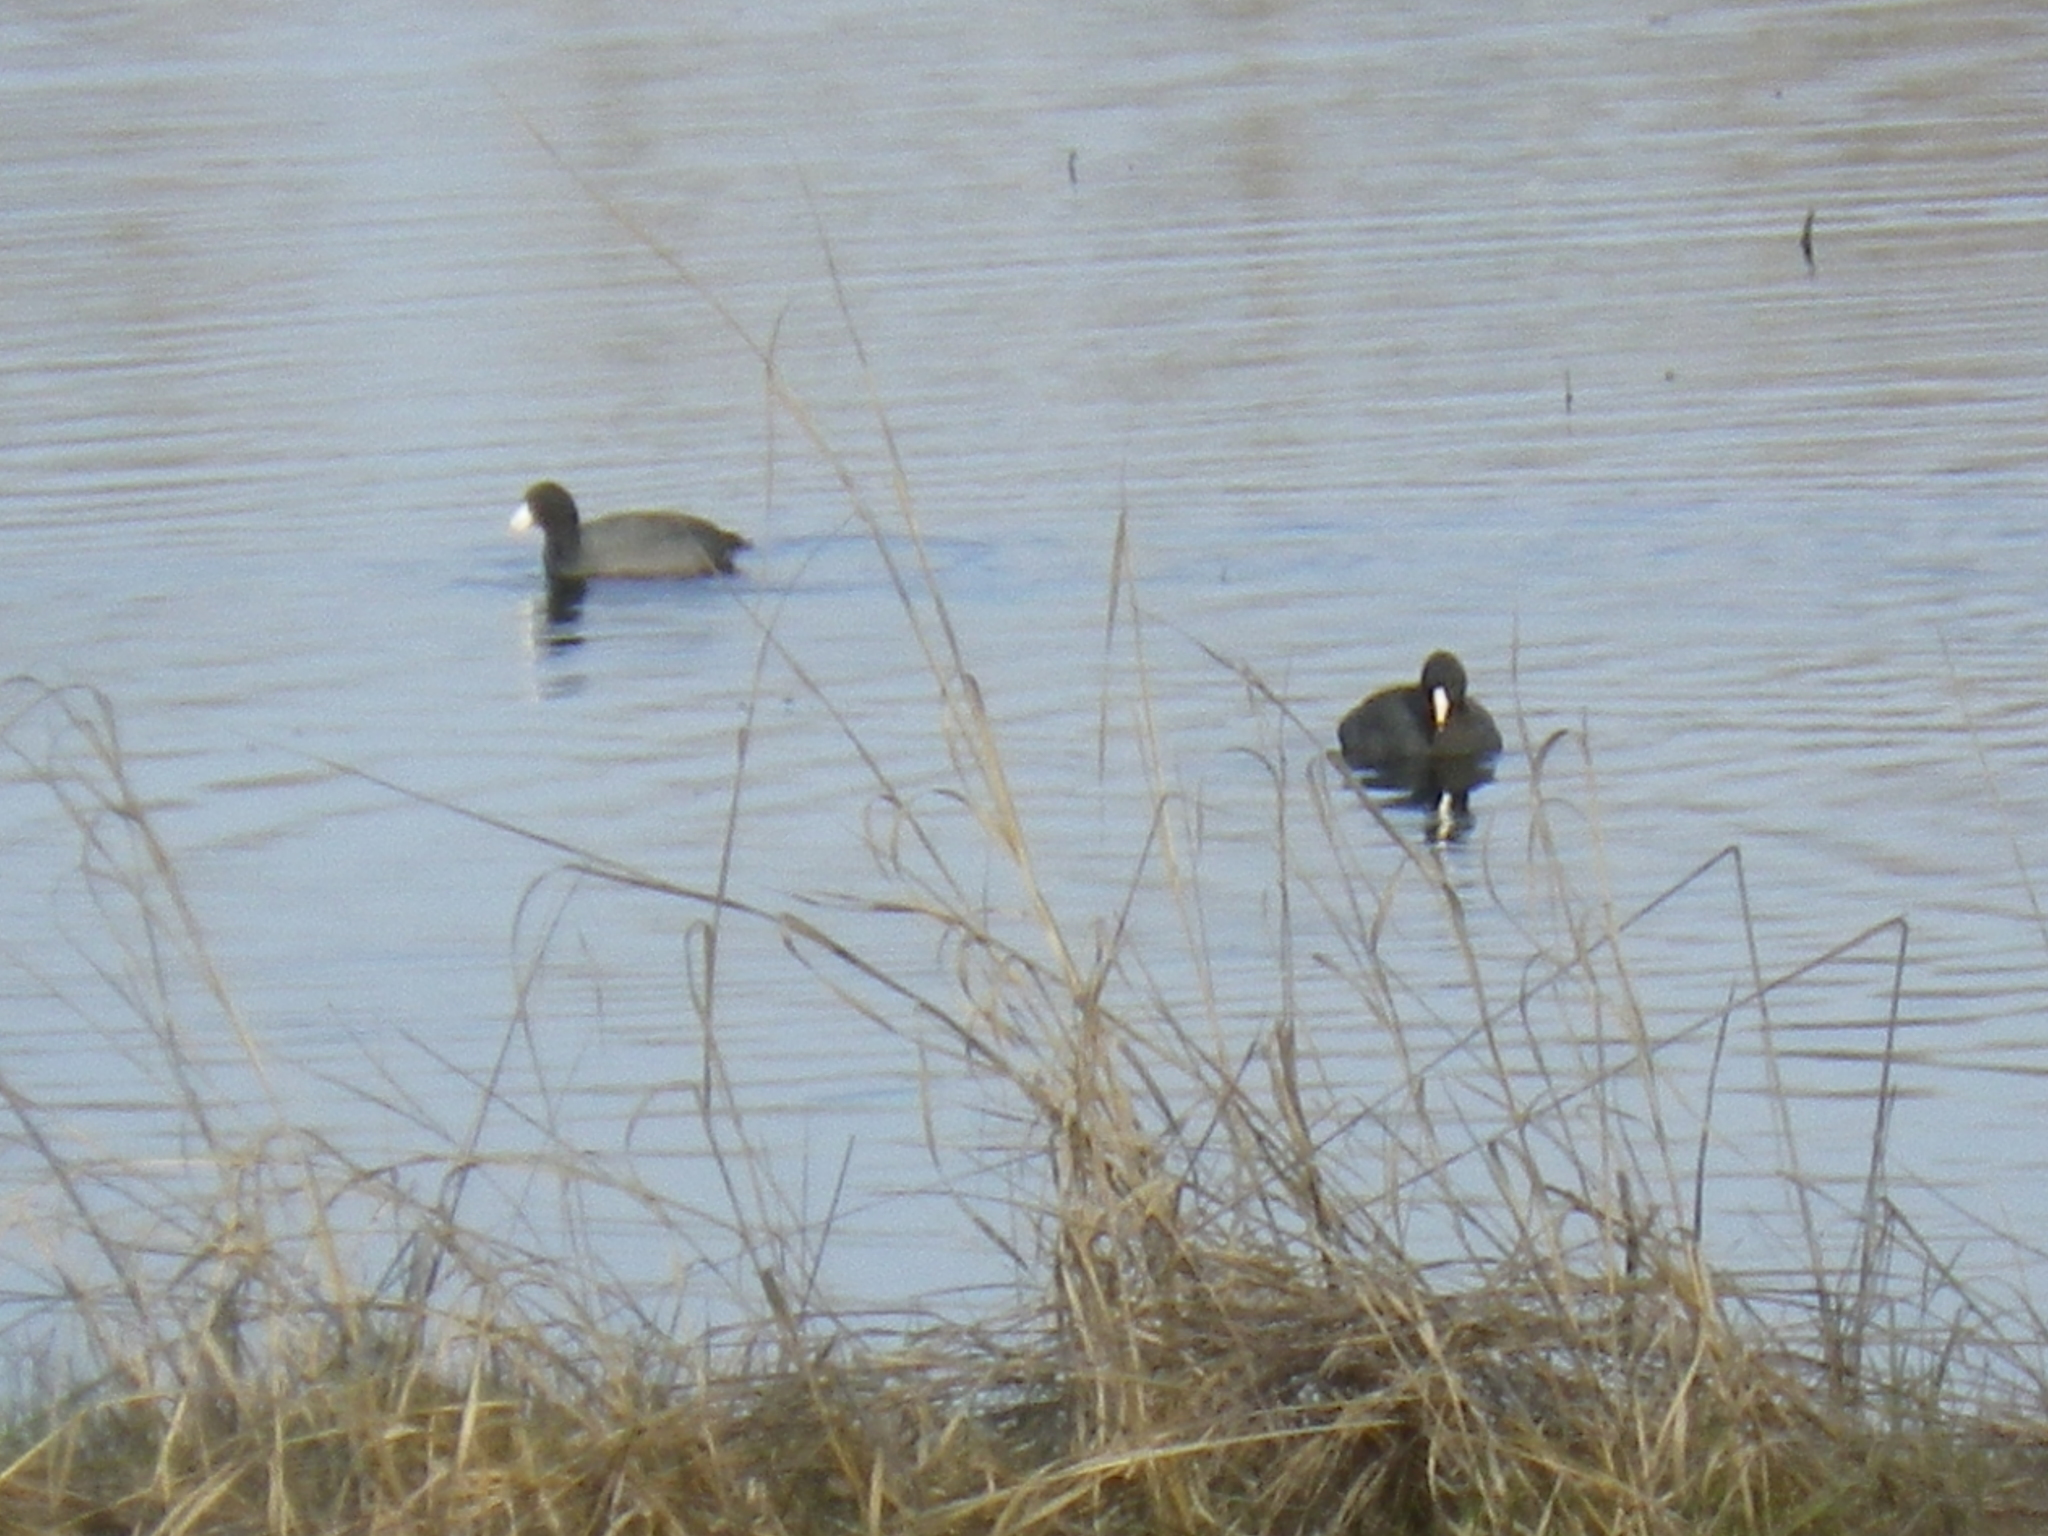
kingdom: Animalia
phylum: Chordata
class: Aves
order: Gruiformes
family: Rallidae
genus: Fulica
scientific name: Fulica americana
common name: American coot
